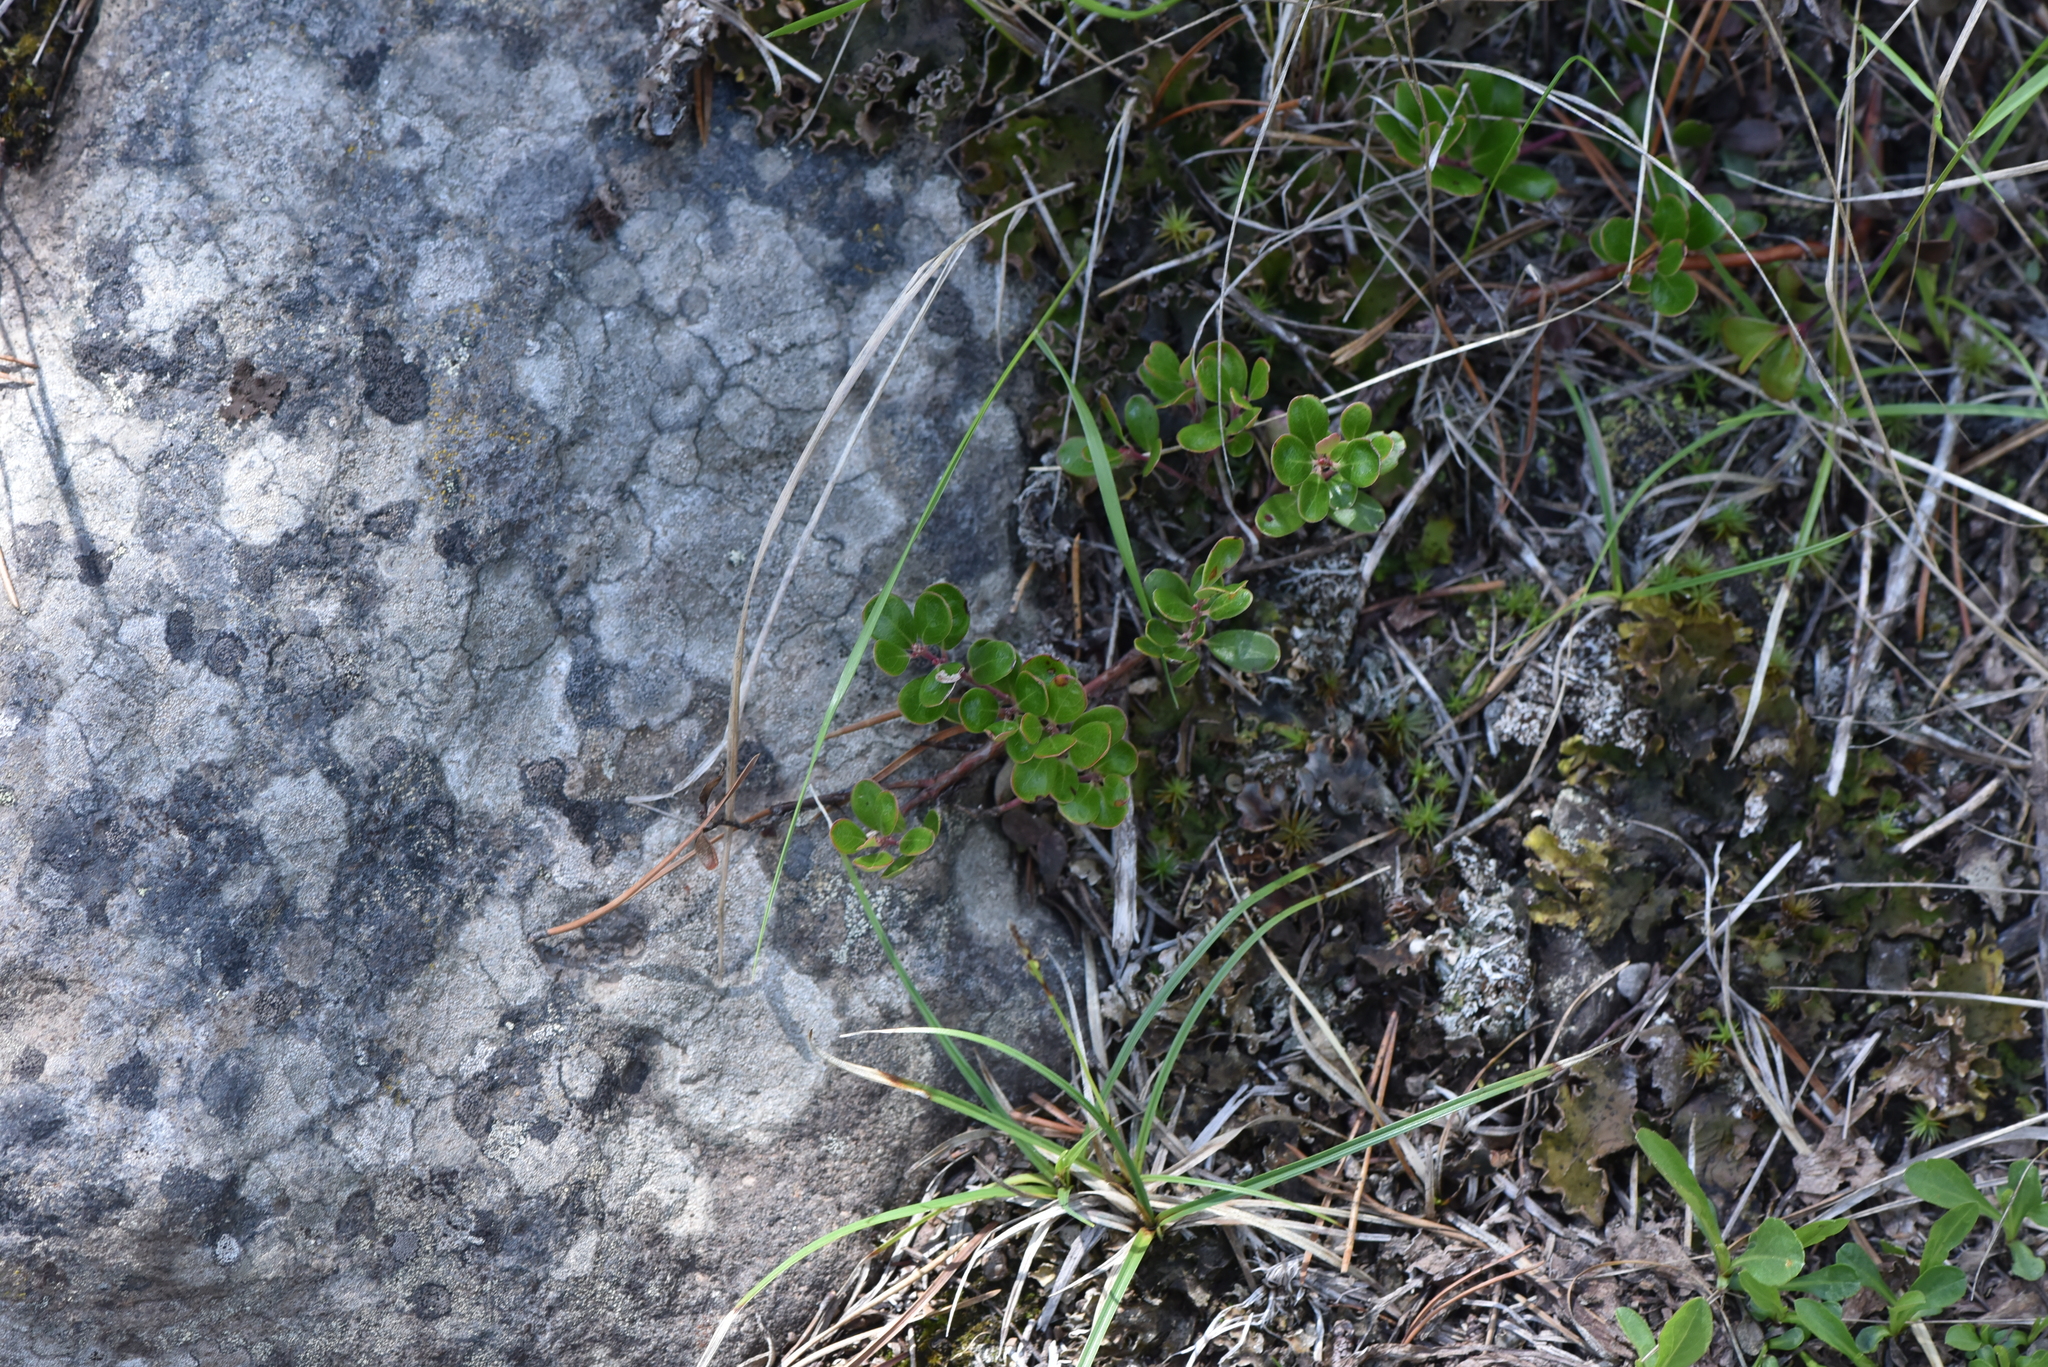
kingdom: Plantae
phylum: Tracheophyta
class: Magnoliopsida
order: Ericales
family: Ericaceae
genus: Arctostaphylos
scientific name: Arctostaphylos uva-ursi
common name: Bearberry
